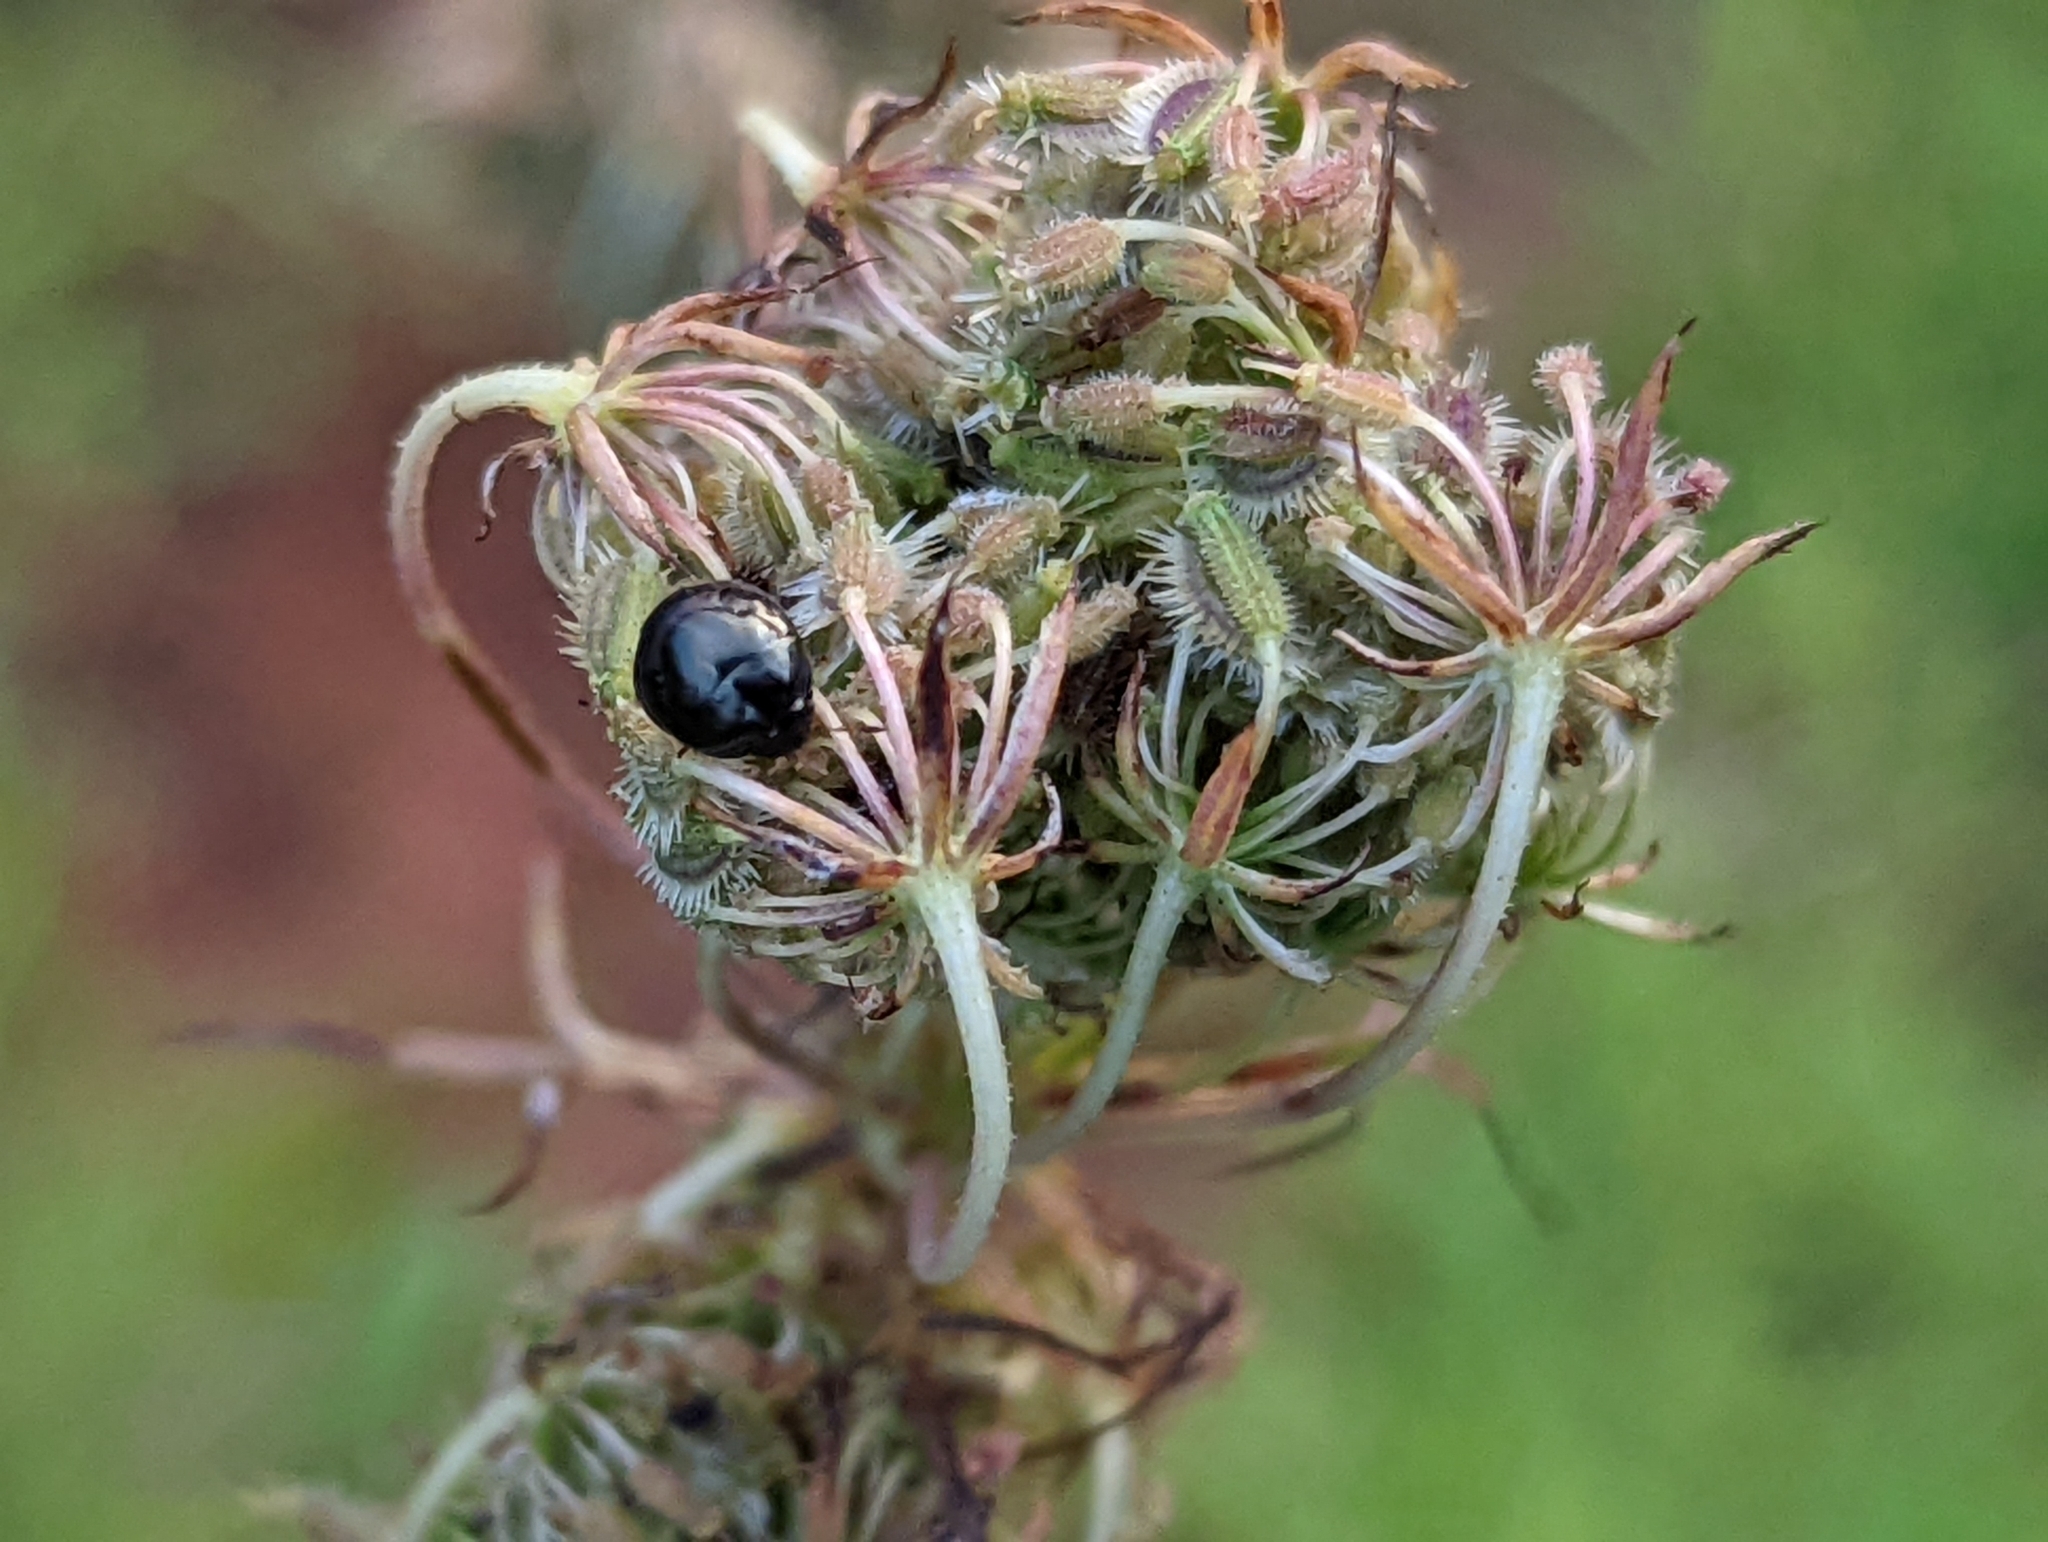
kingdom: Plantae
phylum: Tracheophyta
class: Magnoliopsida
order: Apiales
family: Apiaceae
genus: Daucus
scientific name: Daucus carota
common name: Wild carrot
